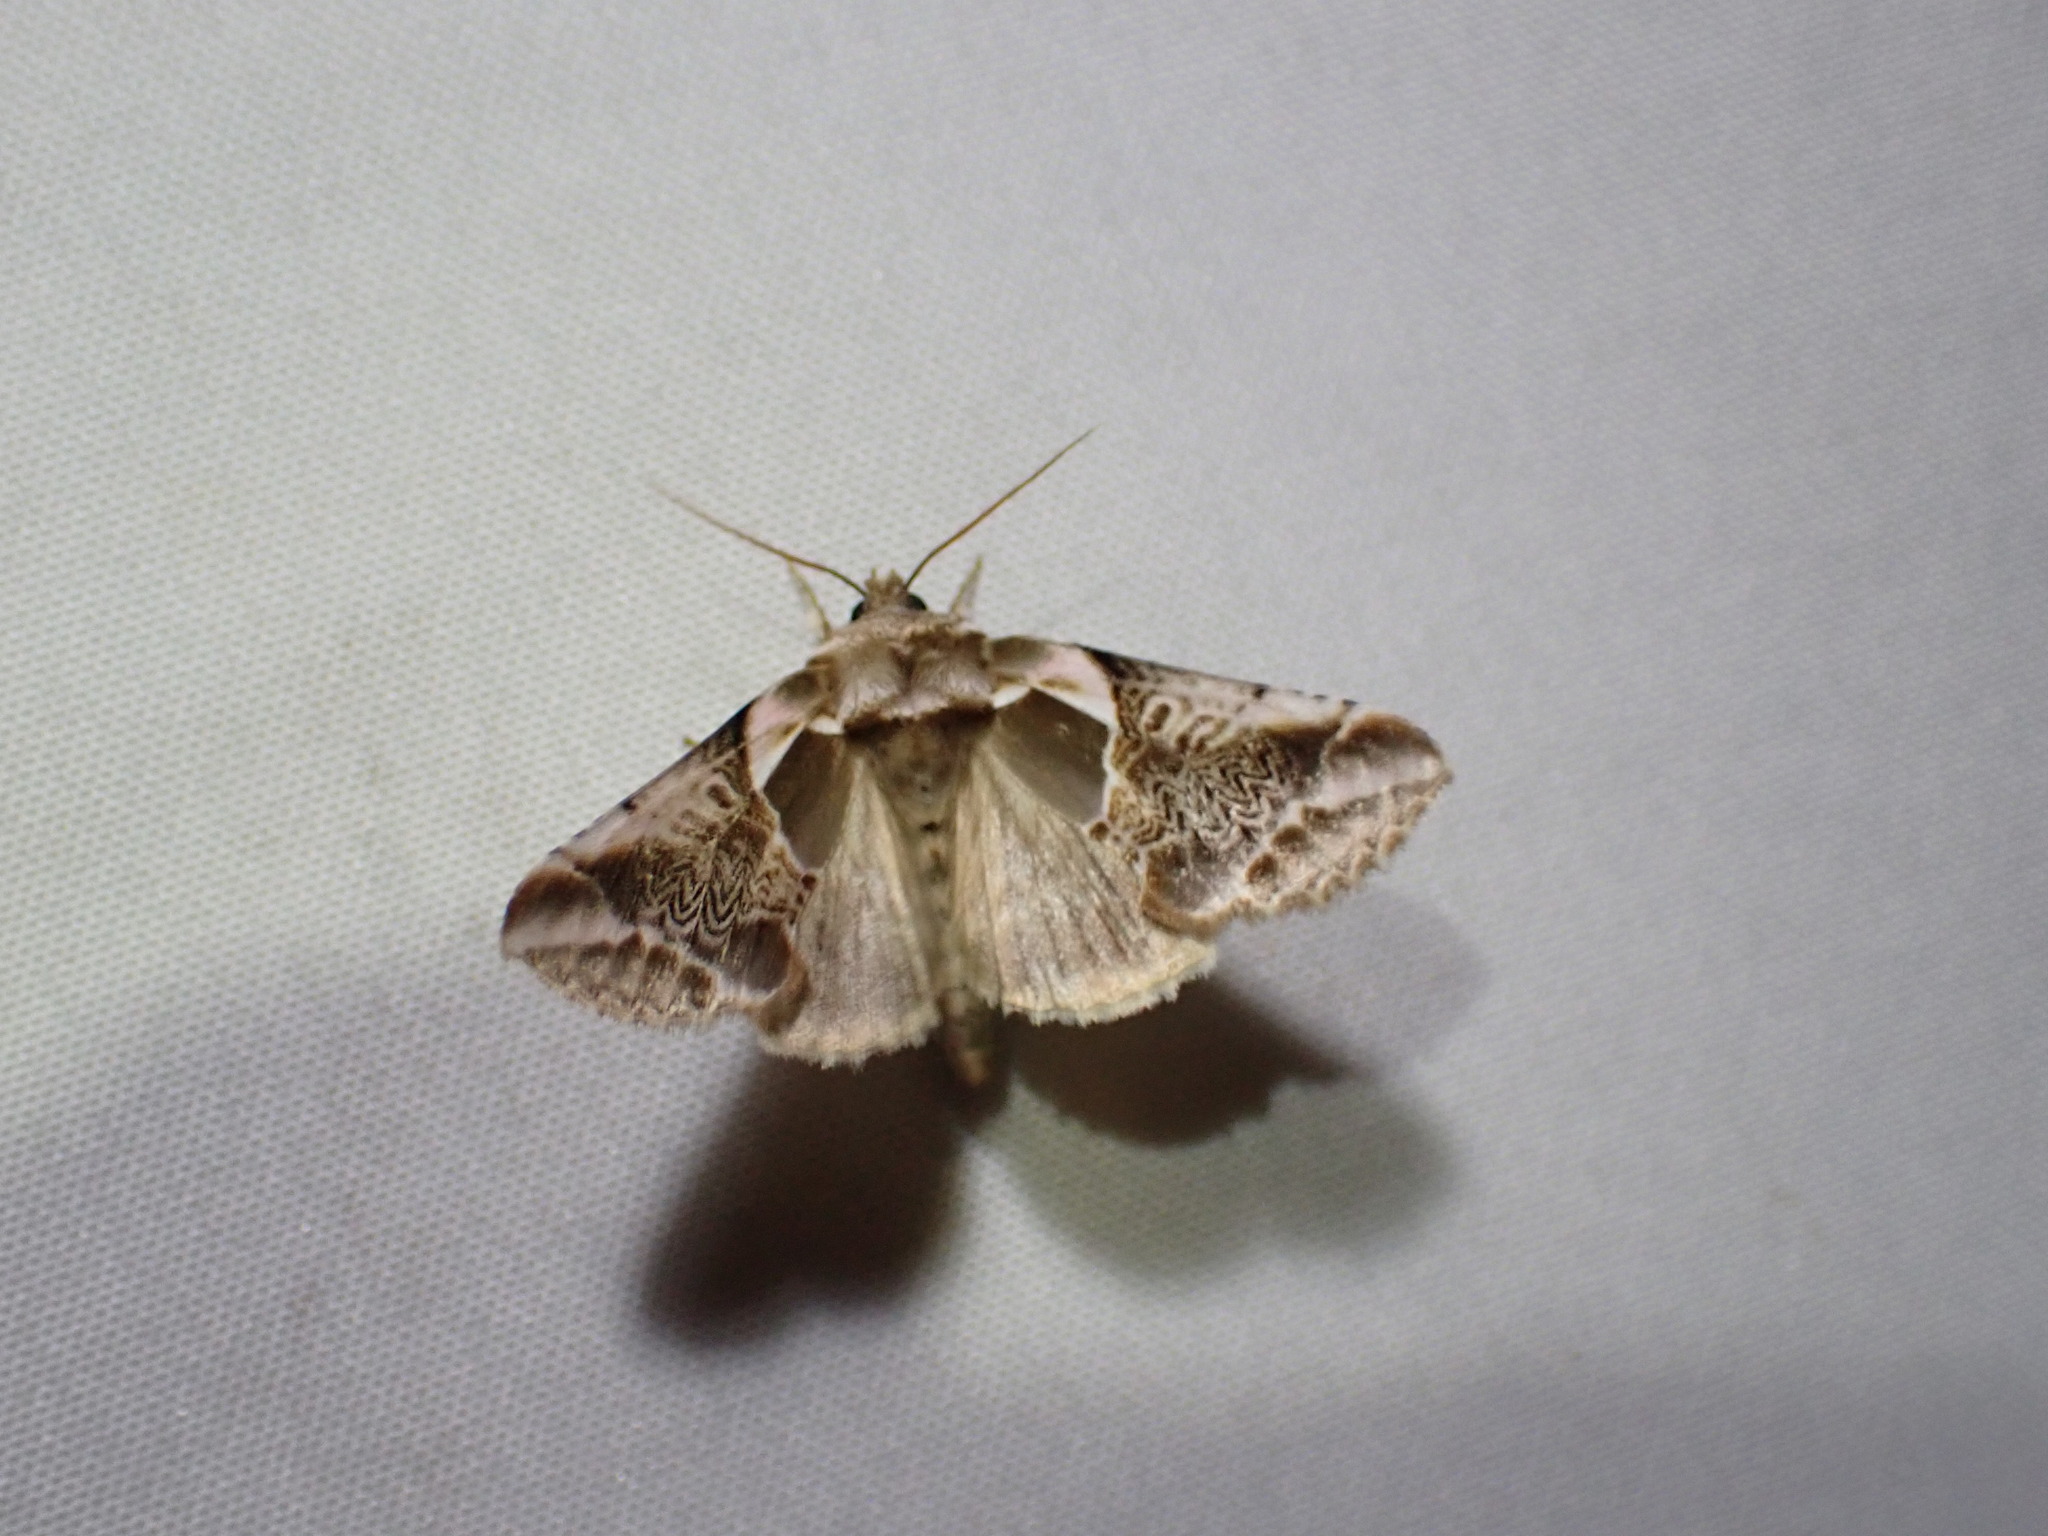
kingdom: Animalia
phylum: Arthropoda
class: Insecta
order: Lepidoptera
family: Drepanidae
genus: Habrosyne
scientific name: Habrosyne scripta
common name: Lettered habrosyne moth
